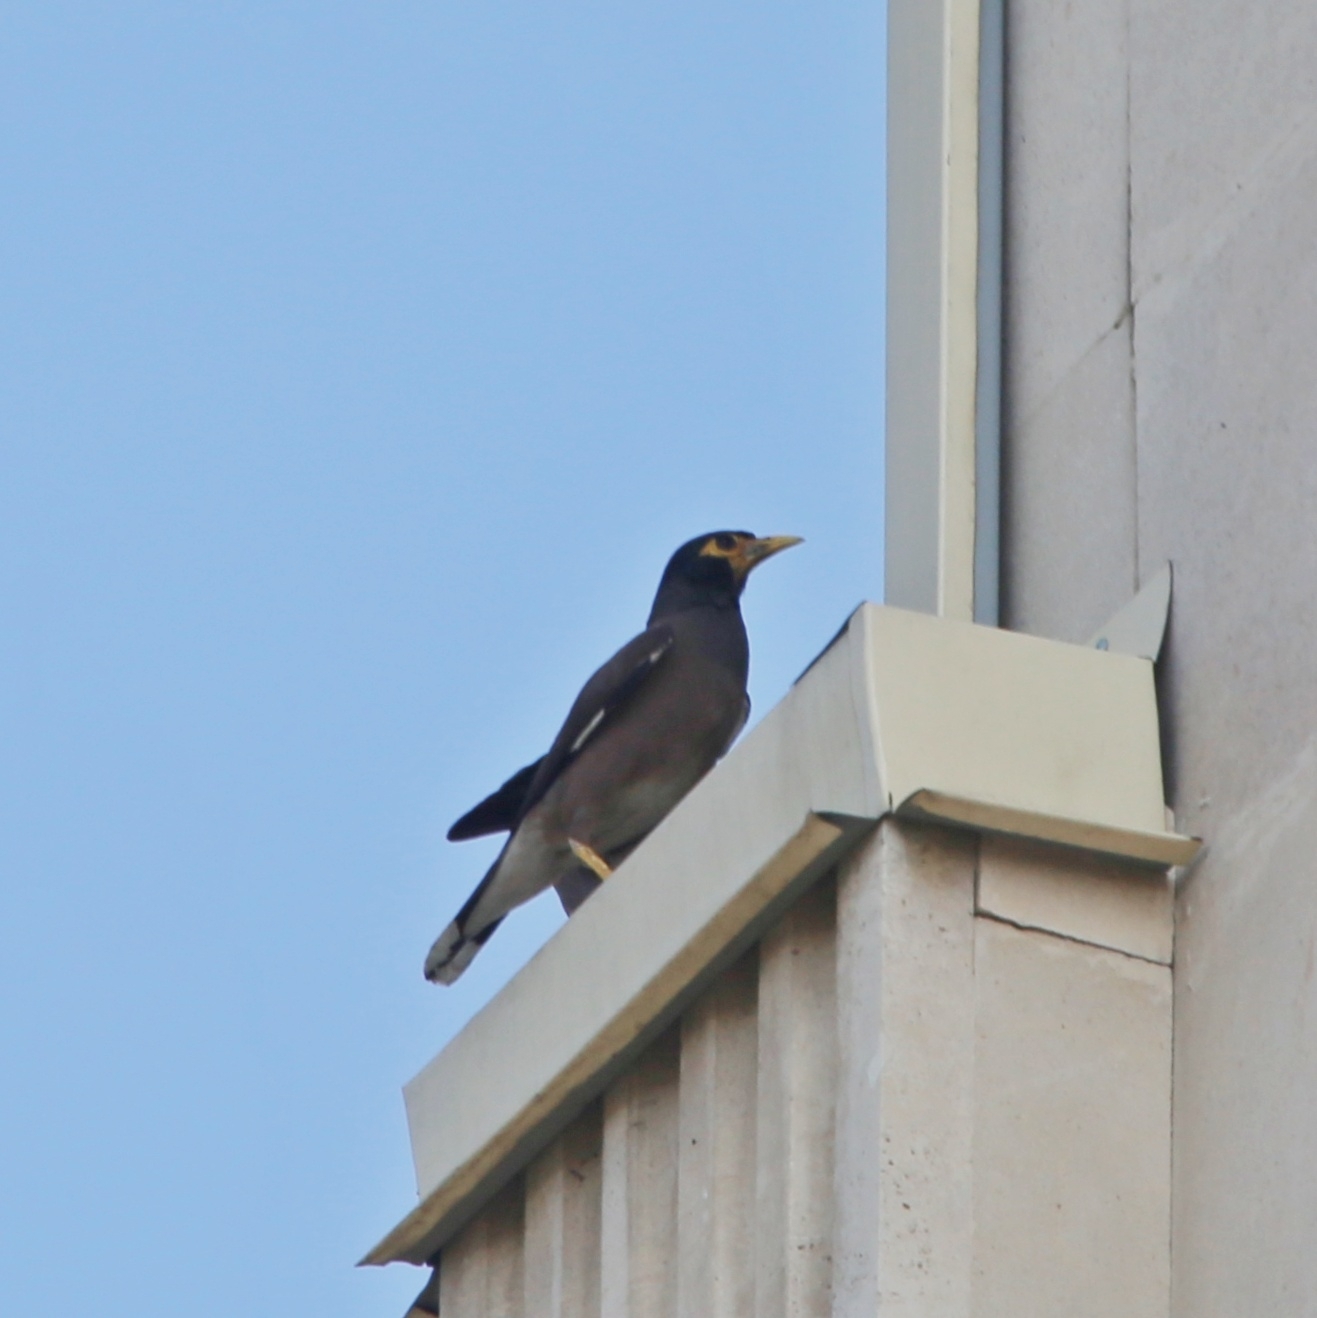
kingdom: Animalia
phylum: Chordata
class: Aves
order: Passeriformes
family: Sturnidae
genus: Acridotheres
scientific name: Acridotheres tristis
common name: Common myna
